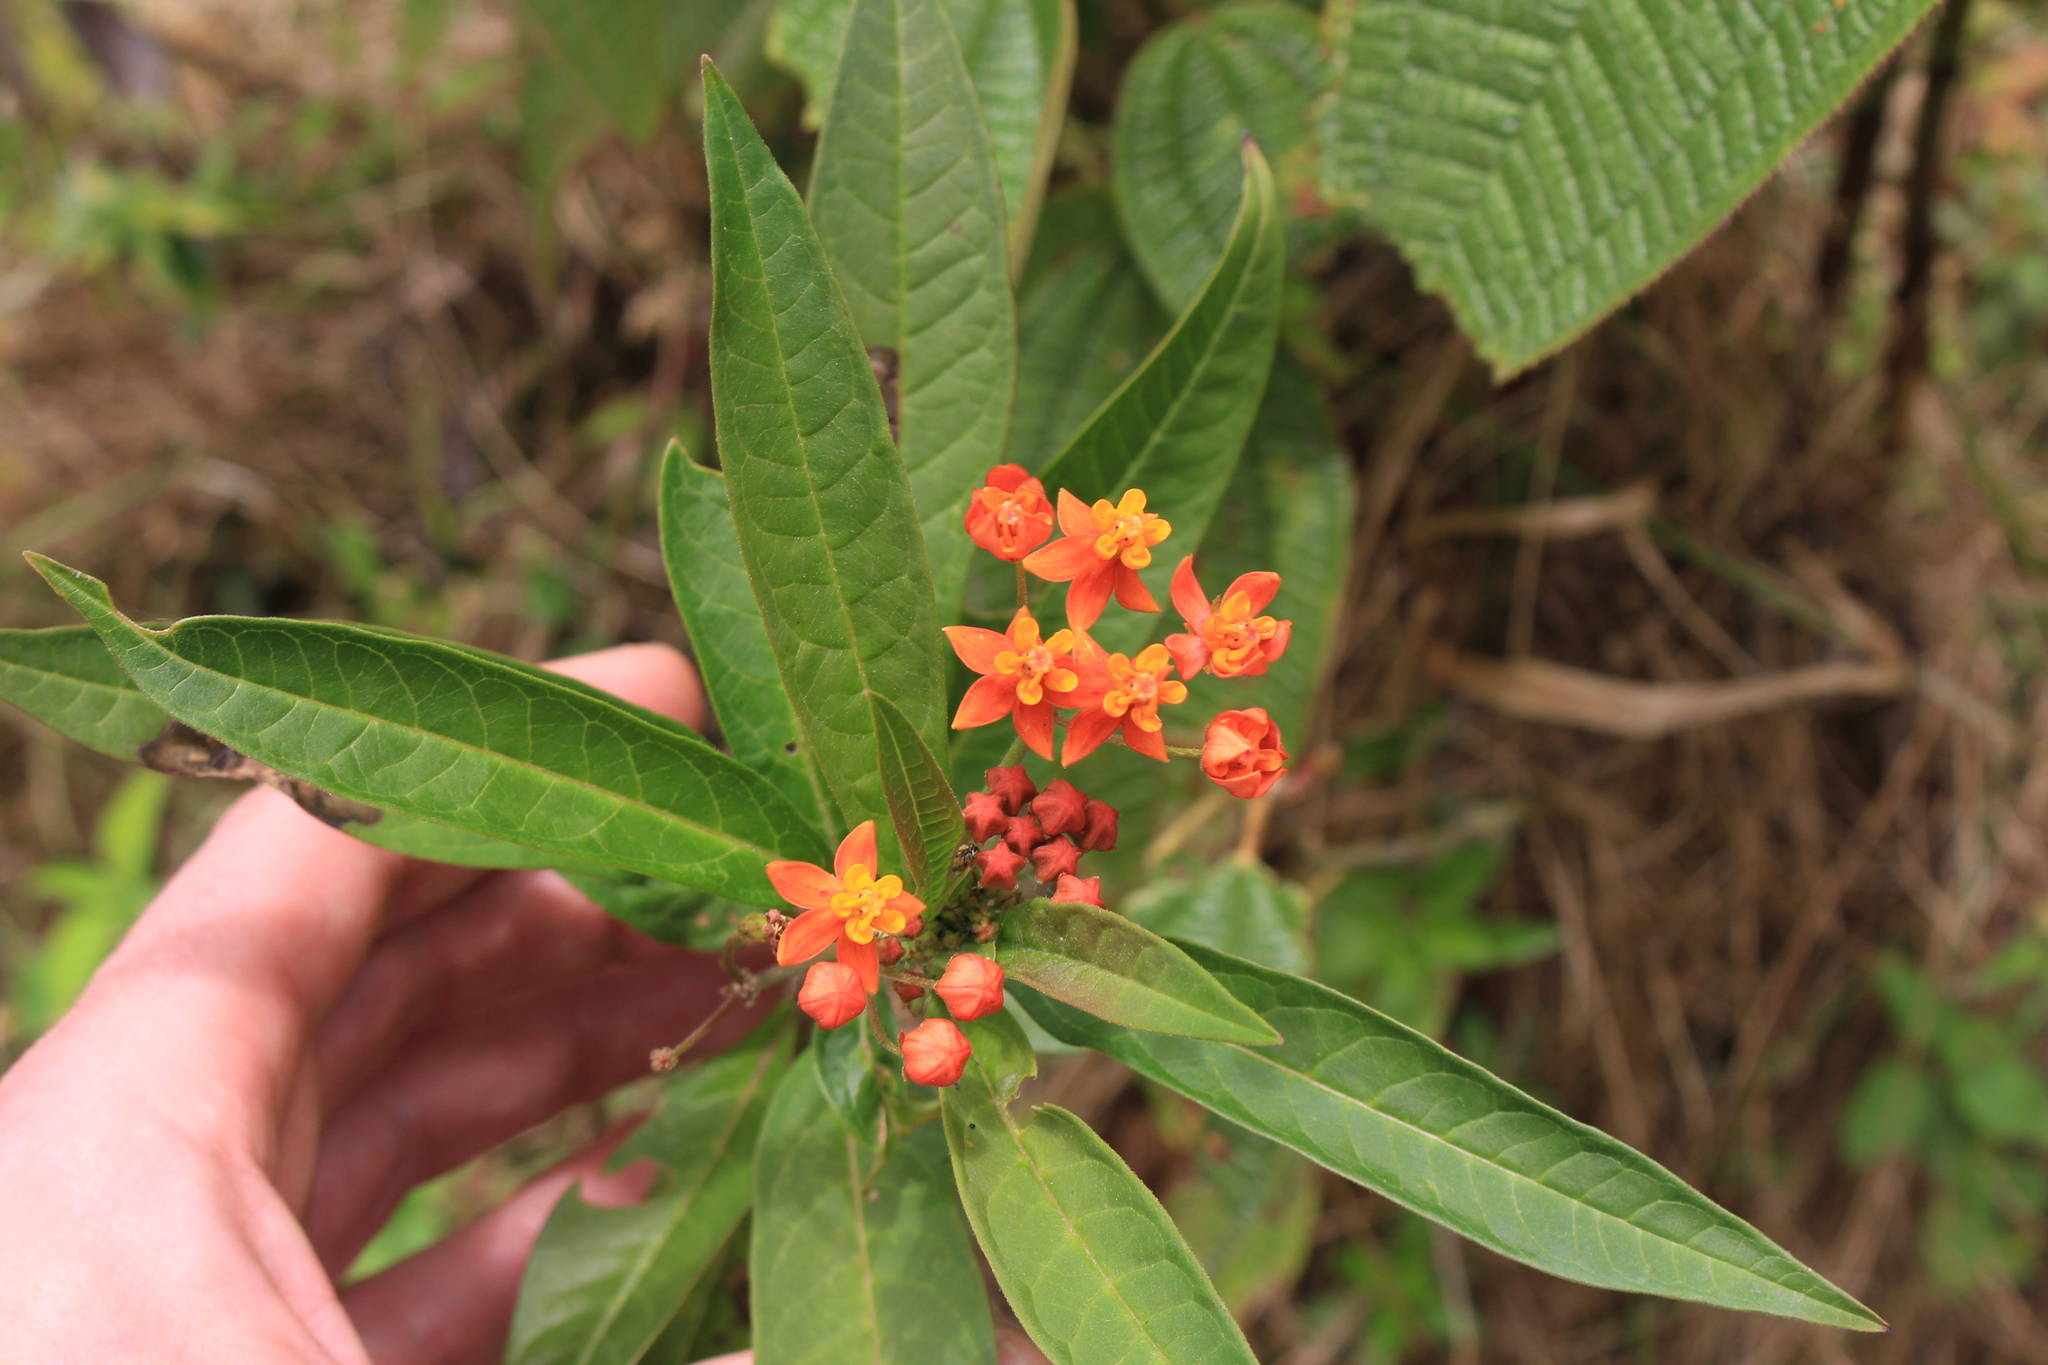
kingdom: Plantae
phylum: Tracheophyta
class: Magnoliopsida
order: Gentianales
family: Apocynaceae
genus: Asclepias
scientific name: Asclepias curassavica
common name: Bloodflower
